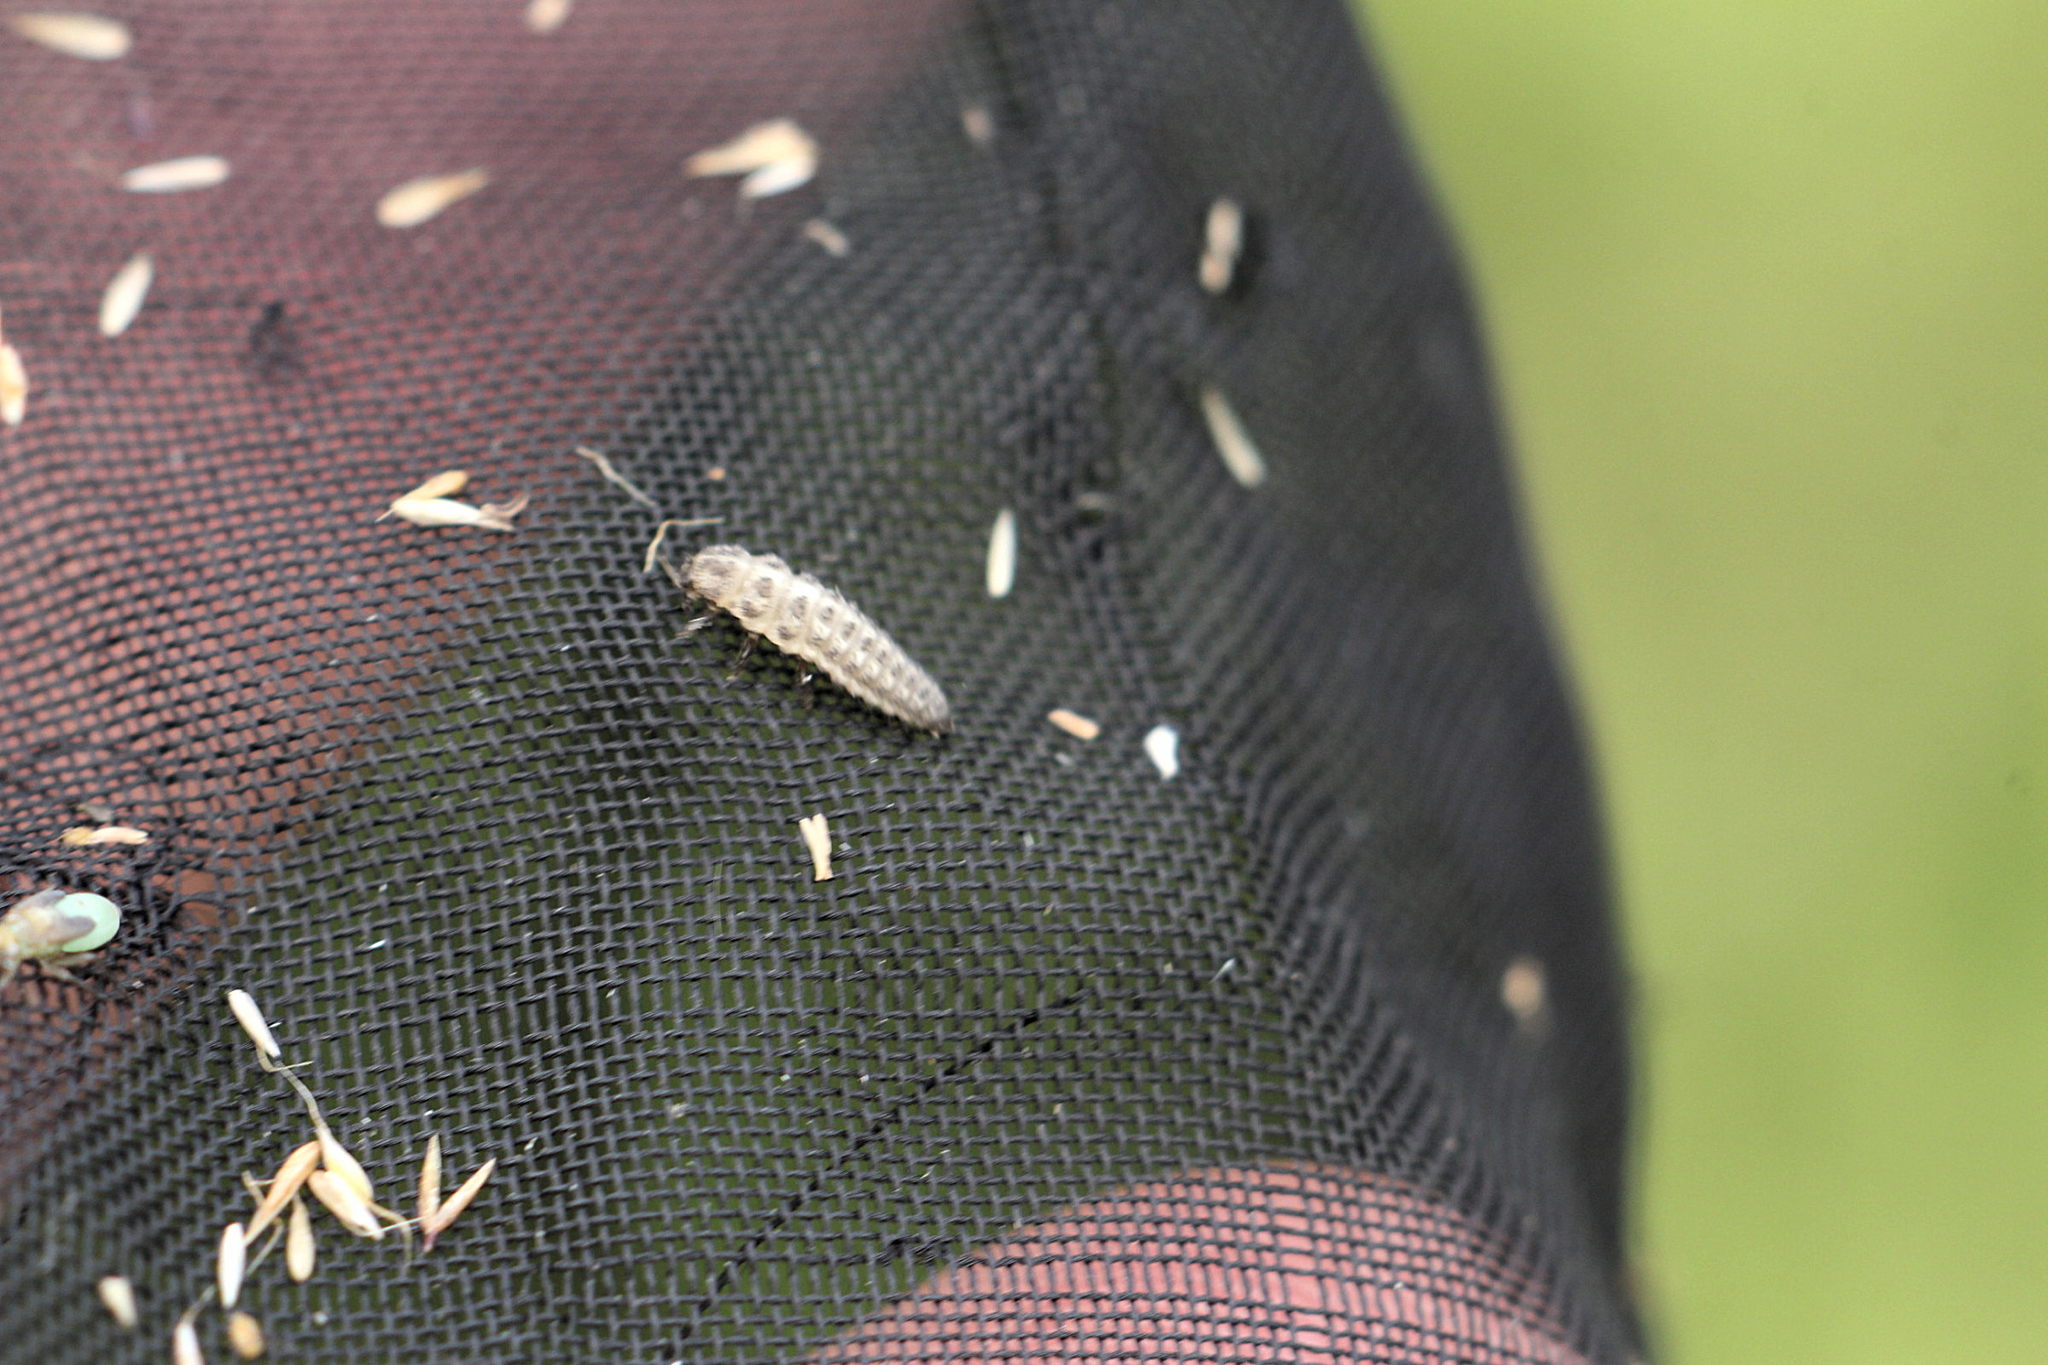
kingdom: Animalia
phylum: Arthropoda
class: Insecta
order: Coleoptera
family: Coccinellidae
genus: Tytthaspis
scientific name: Tytthaspis sedecimpunctata
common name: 16-spot ladybird
